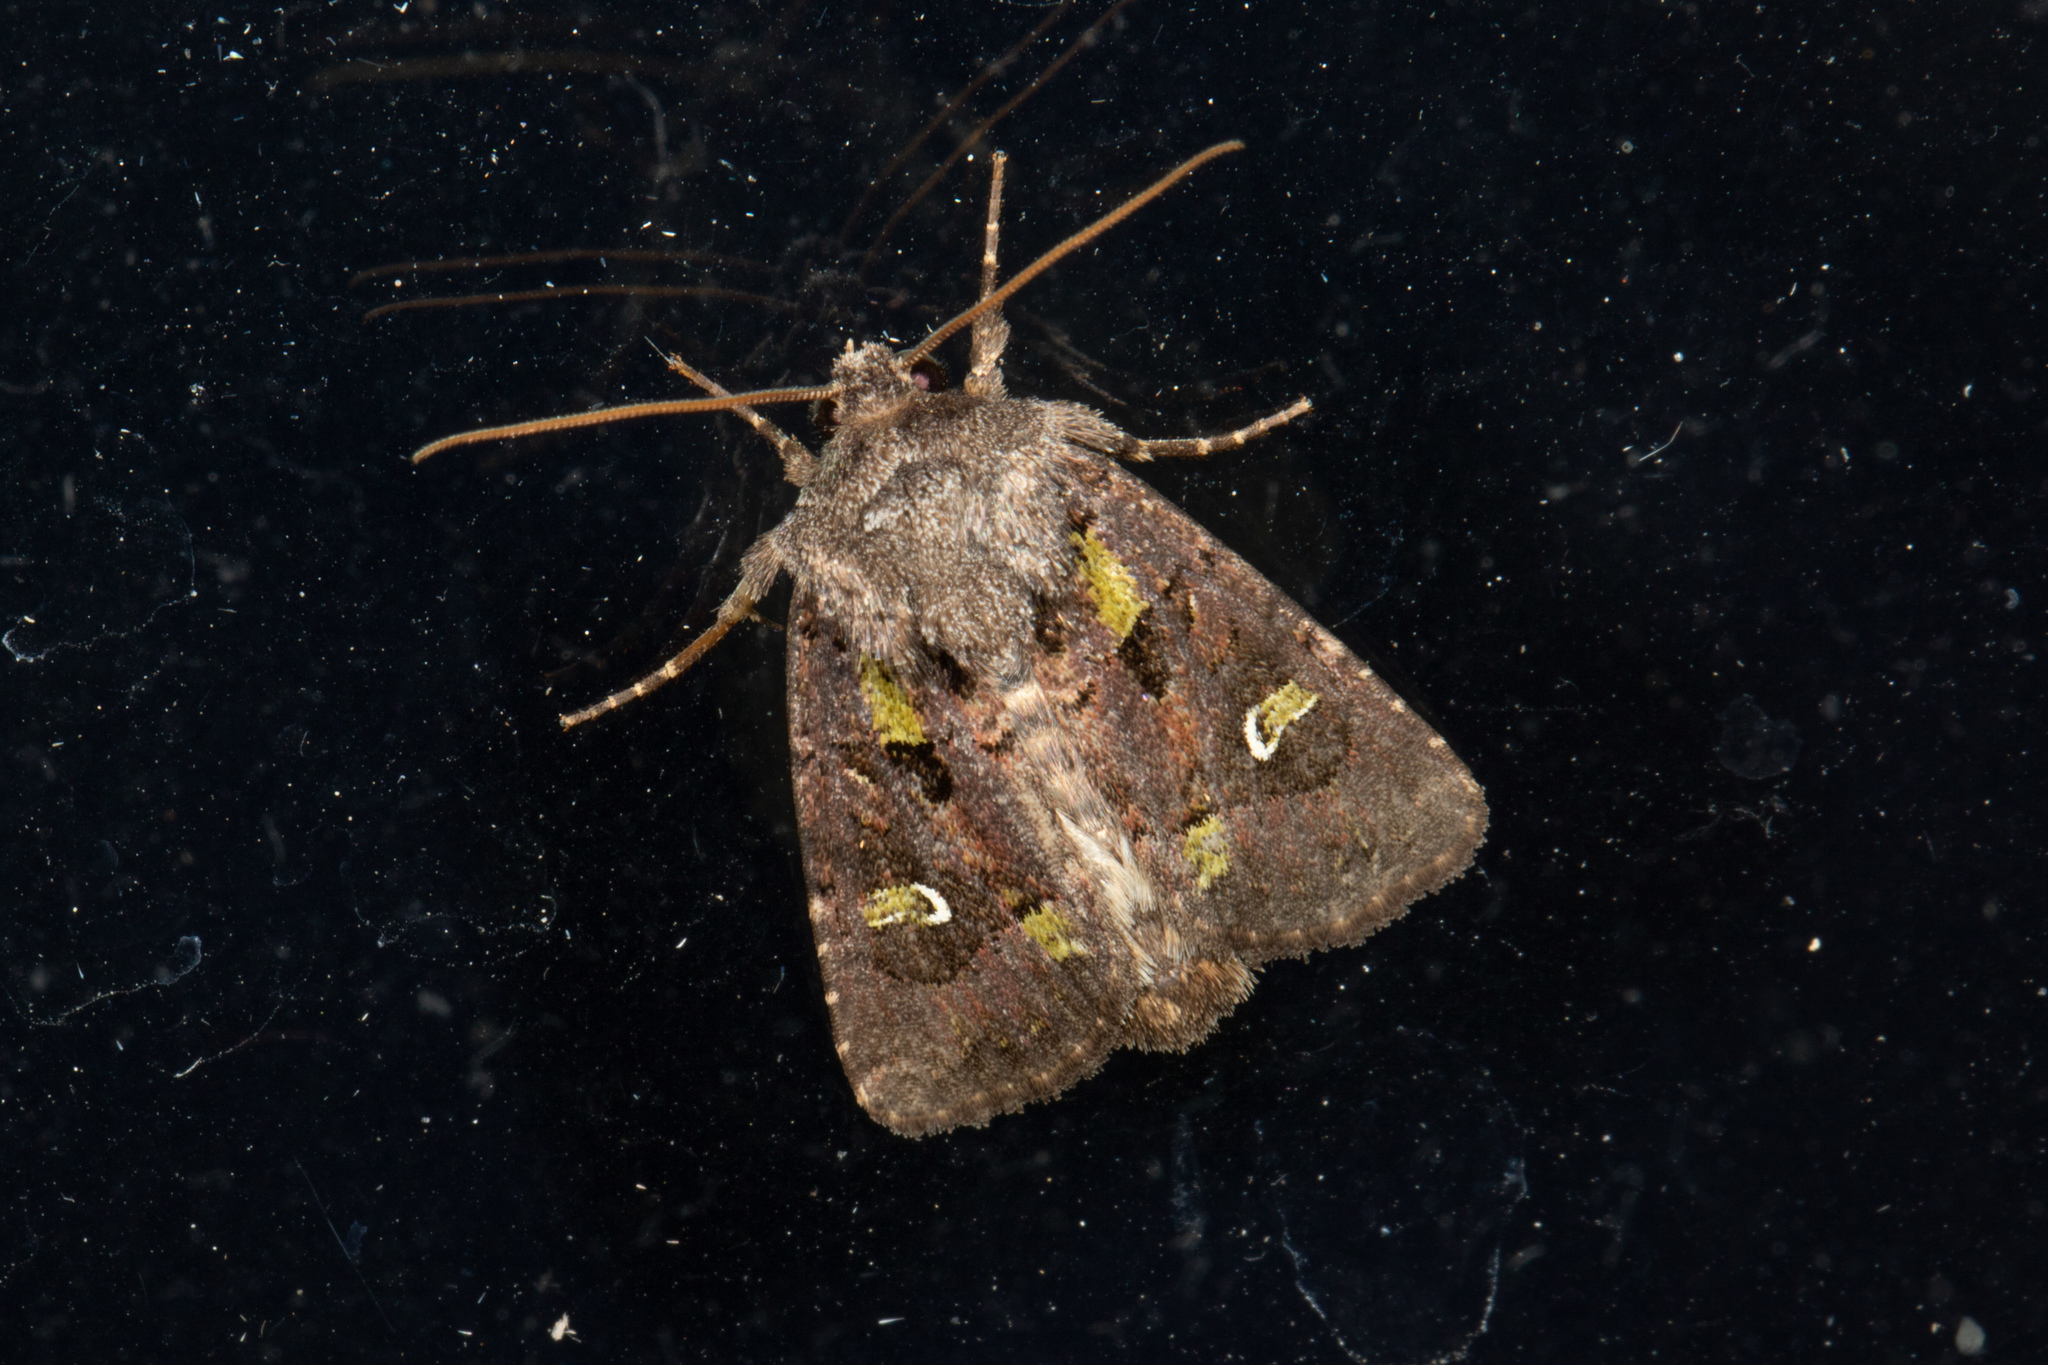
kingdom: Animalia
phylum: Arthropoda
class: Insecta
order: Lepidoptera
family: Noctuidae
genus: Lacinipolia
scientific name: Lacinipolia renigera
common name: Kidney-spotted minor
